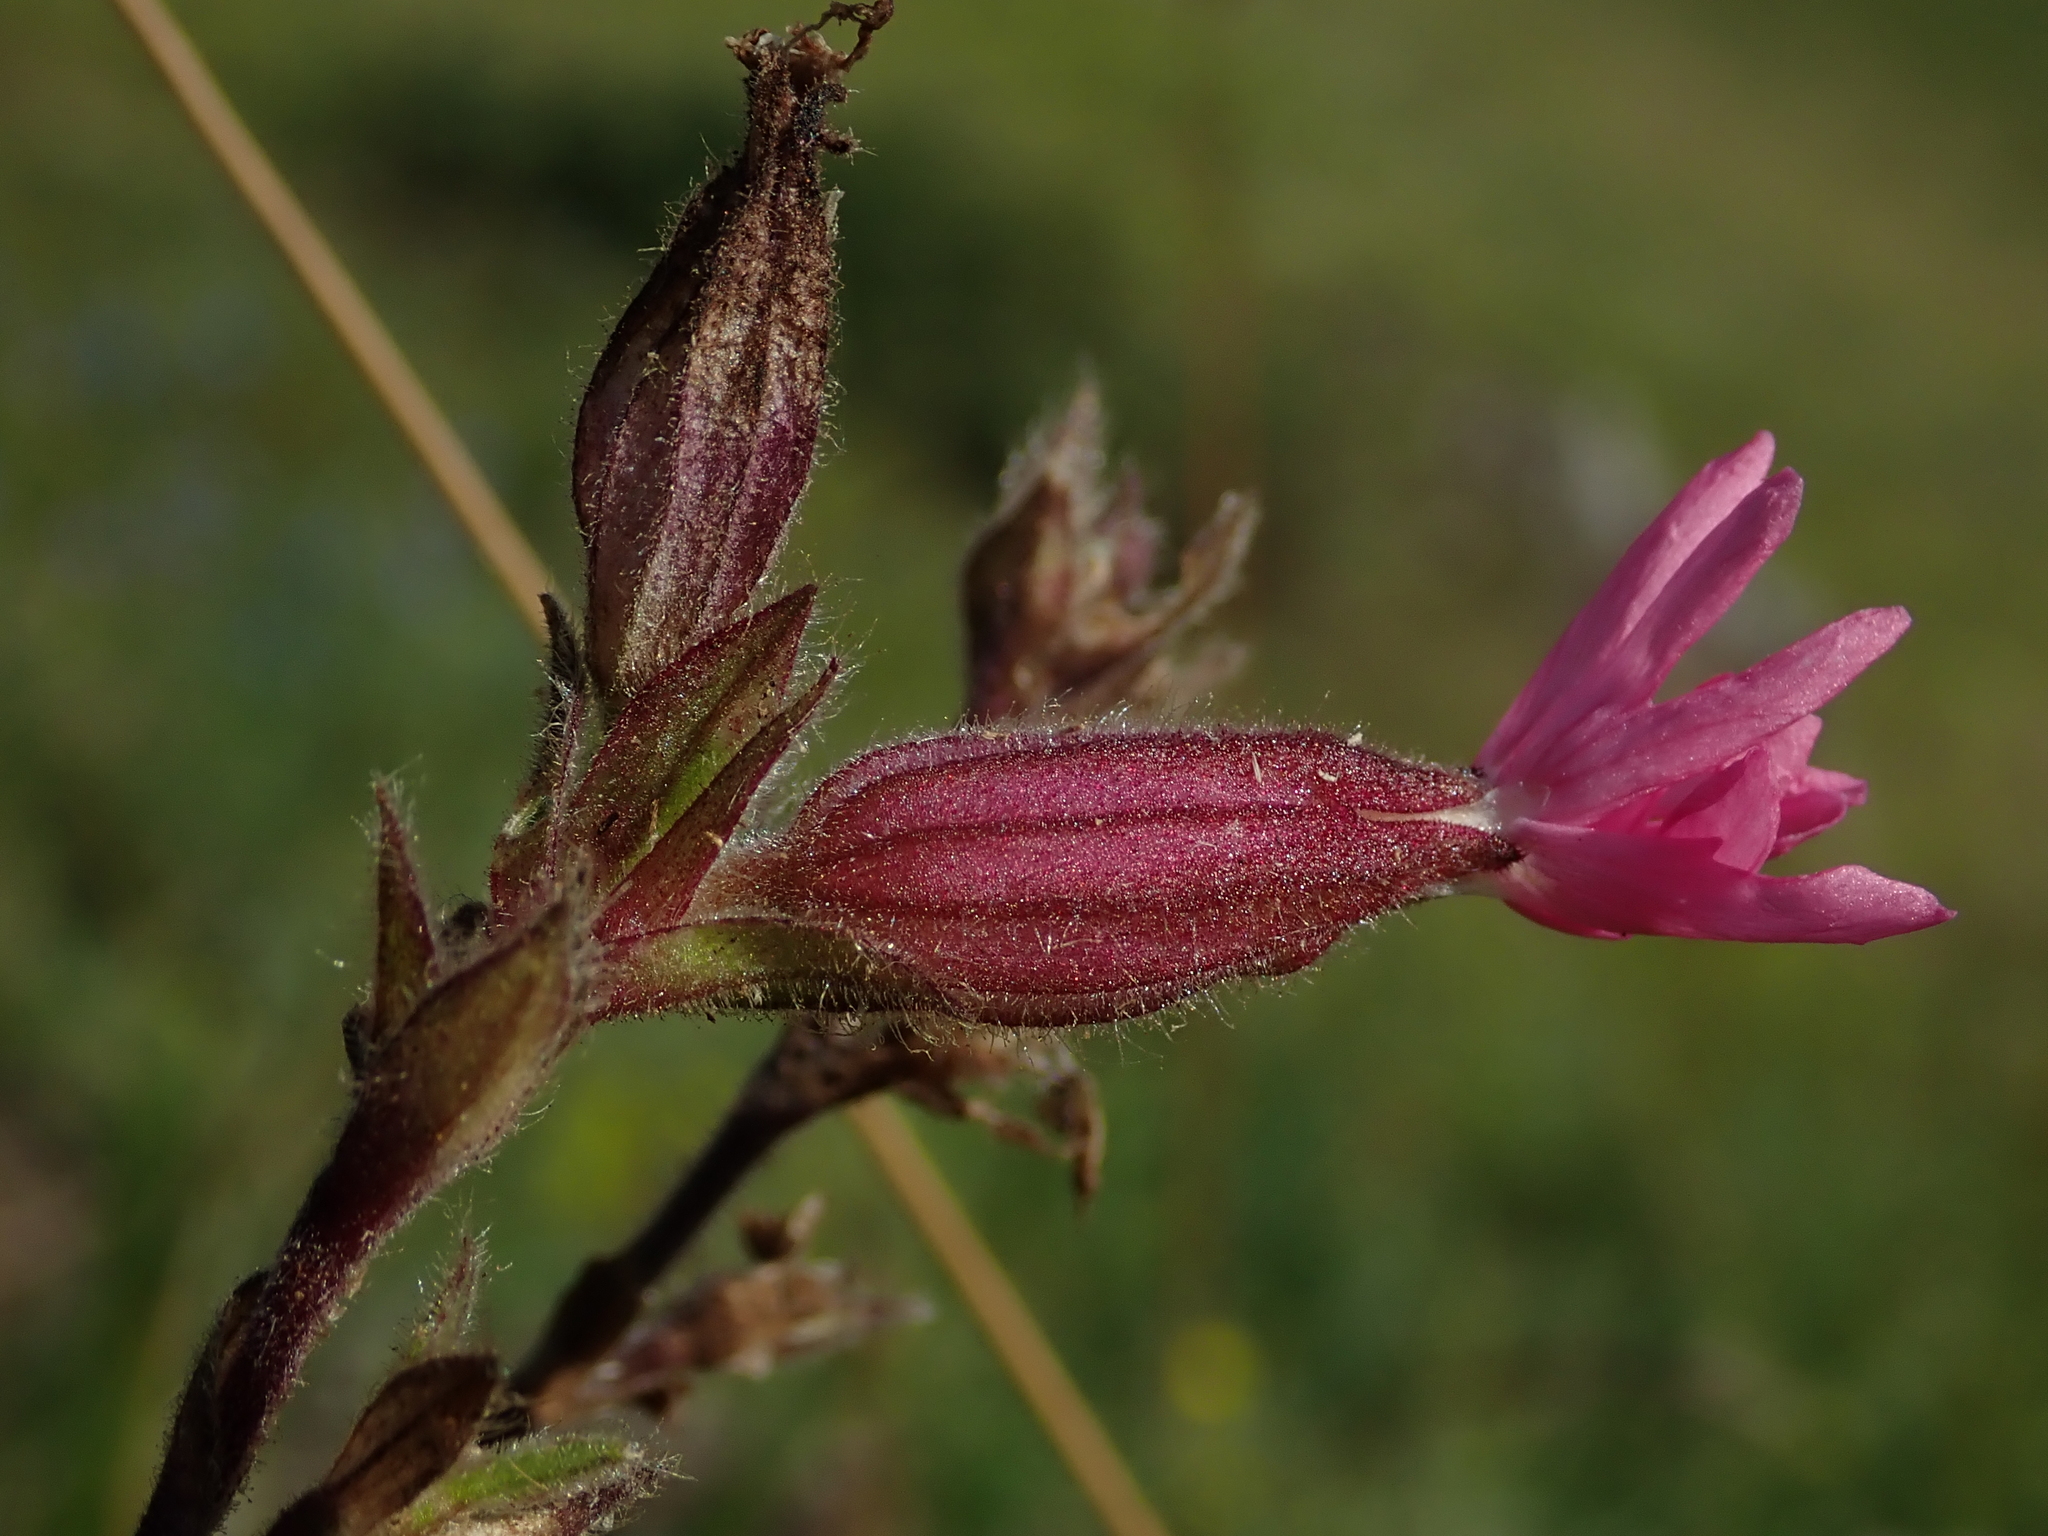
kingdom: Plantae
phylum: Tracheophyta
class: Magnoliopsida
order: Caryophyllales
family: Caryophyllaceae
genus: Silene
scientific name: Silene dioica
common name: Red campion
